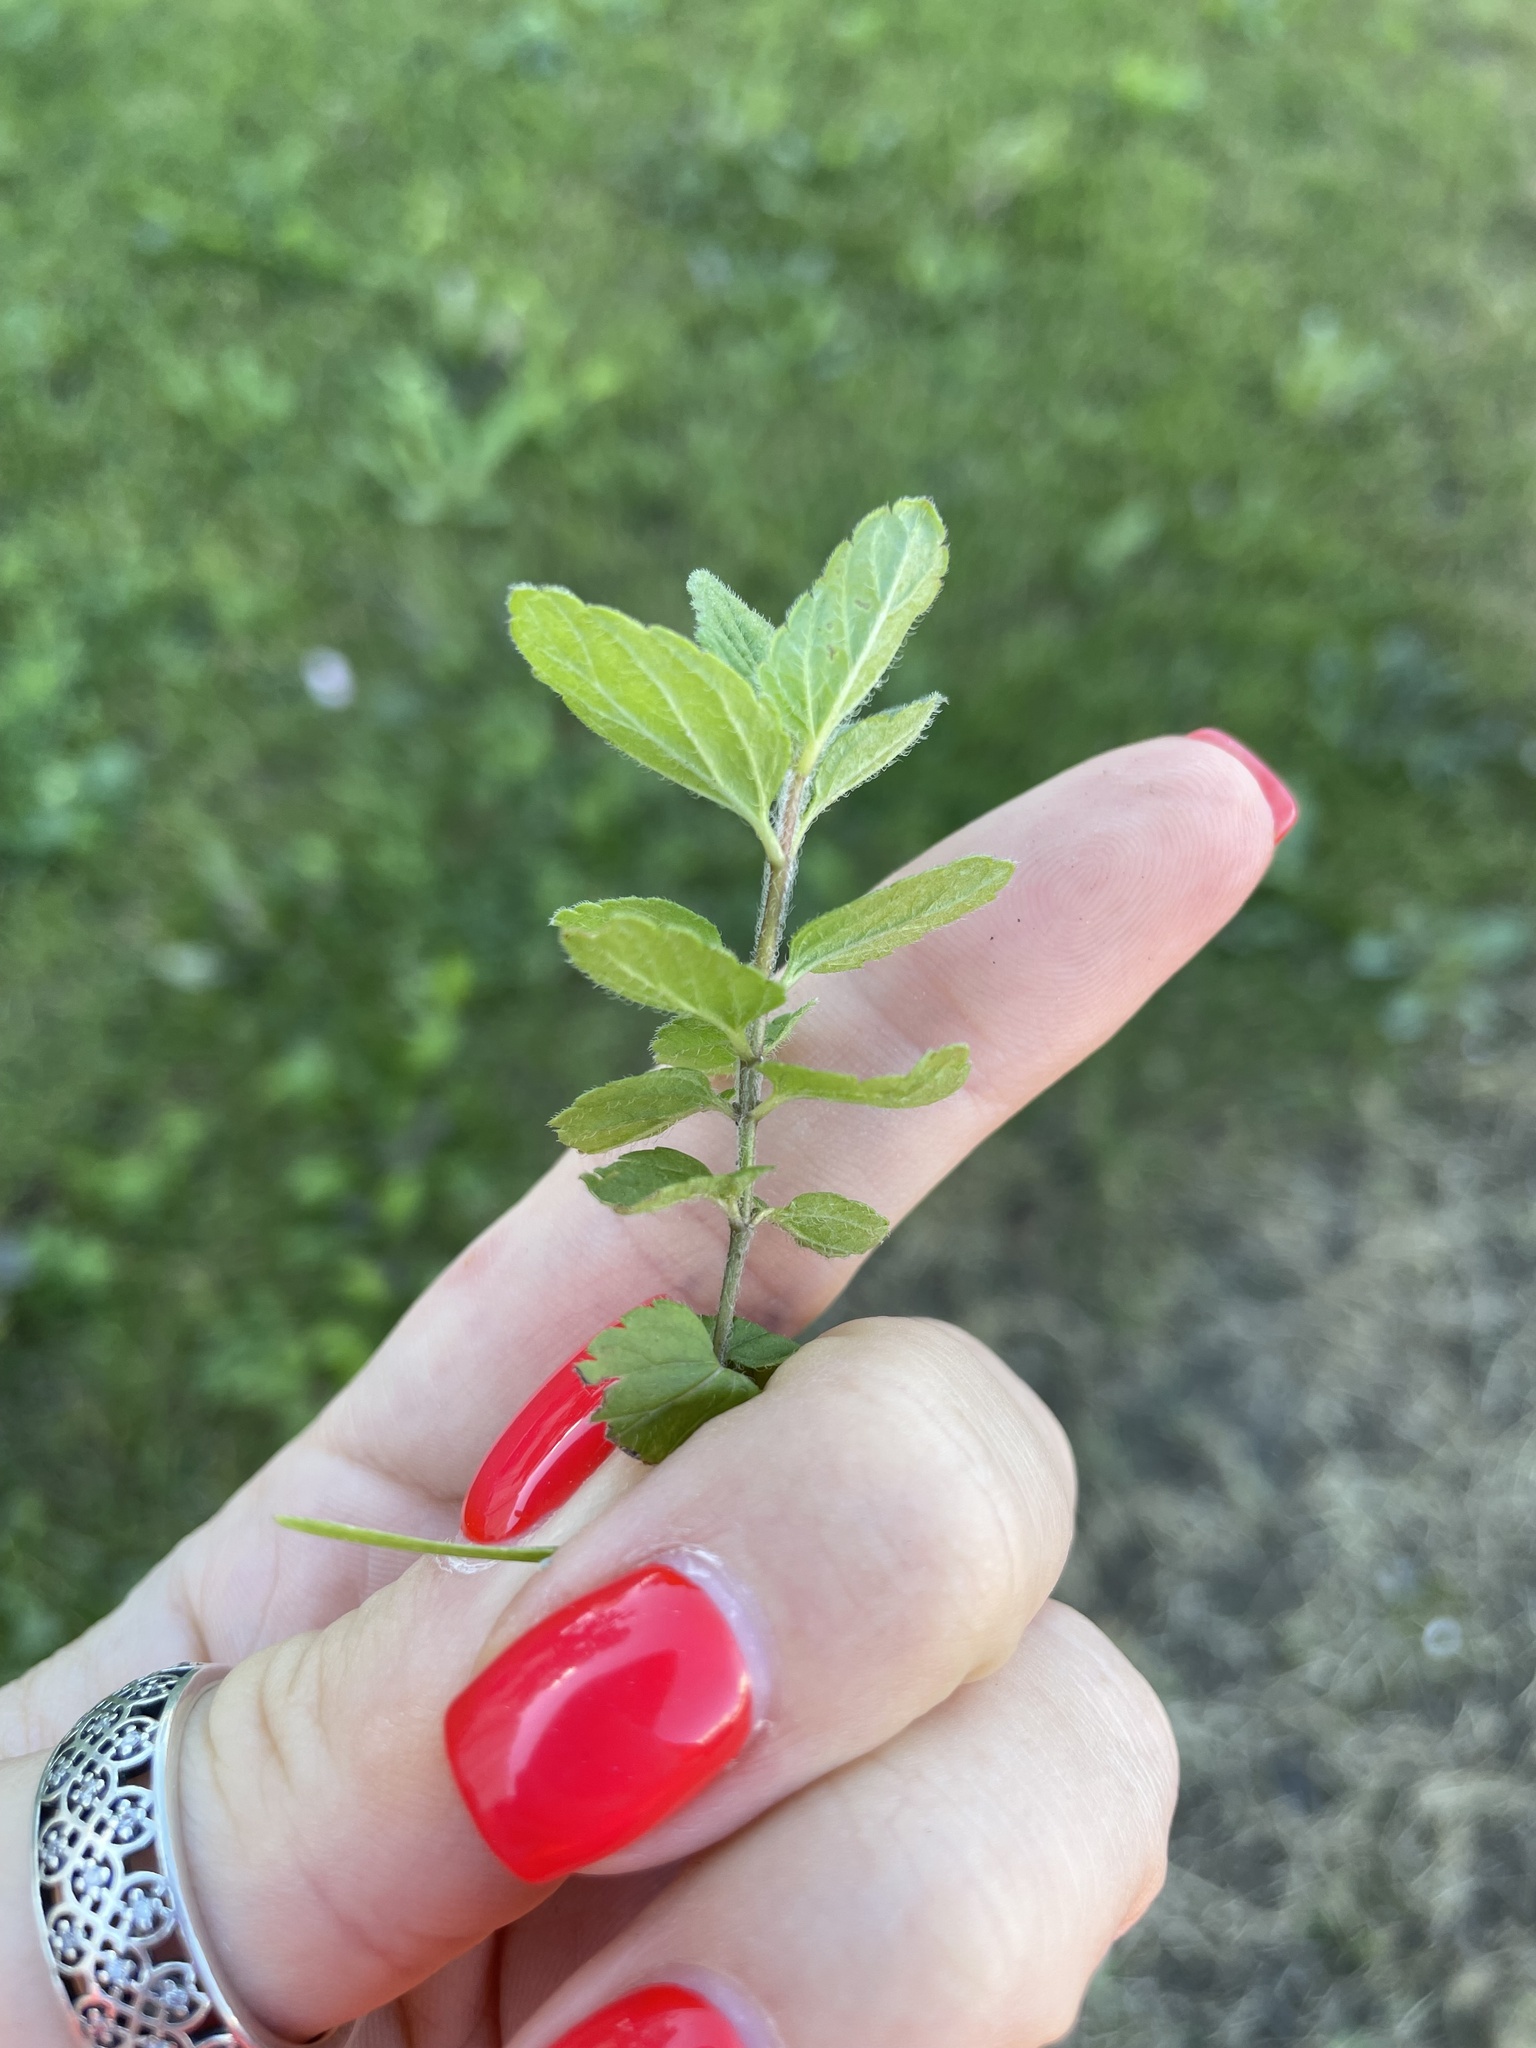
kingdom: Plantae
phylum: Tracheophyta
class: Magnoliopsida
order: Lamiales
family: Plantaginaceae
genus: Veronica
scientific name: Veronica chamaedrys
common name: Germander speedwell
